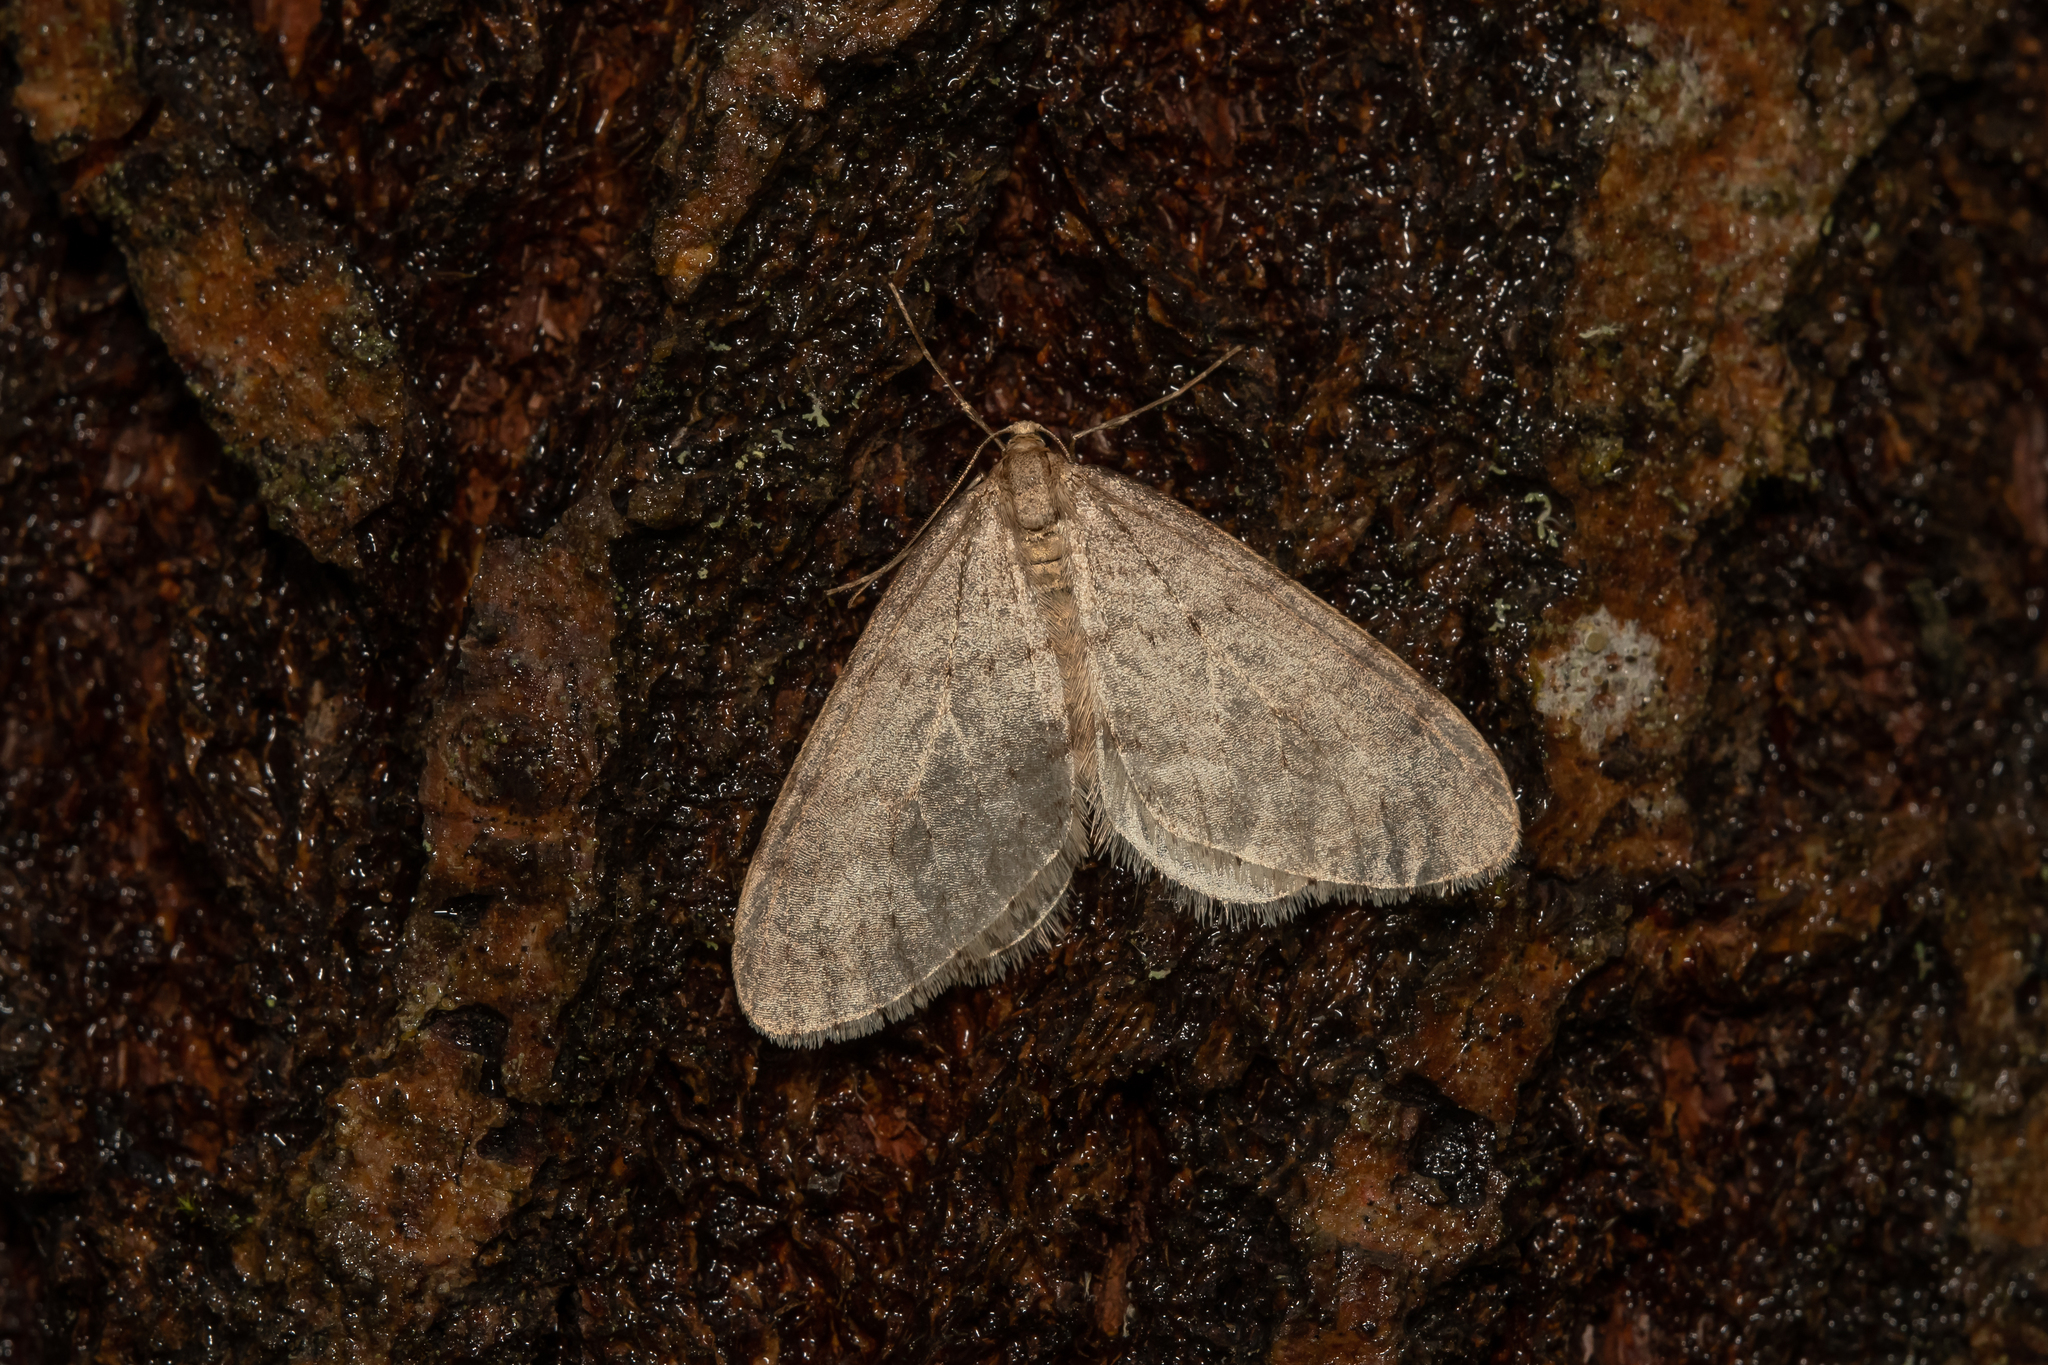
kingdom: Animalia
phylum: Arthropoda
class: Insecta
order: Lepidoptera
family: Geometridae
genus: Operophtera
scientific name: Operophtera brumata
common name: Winter moth
